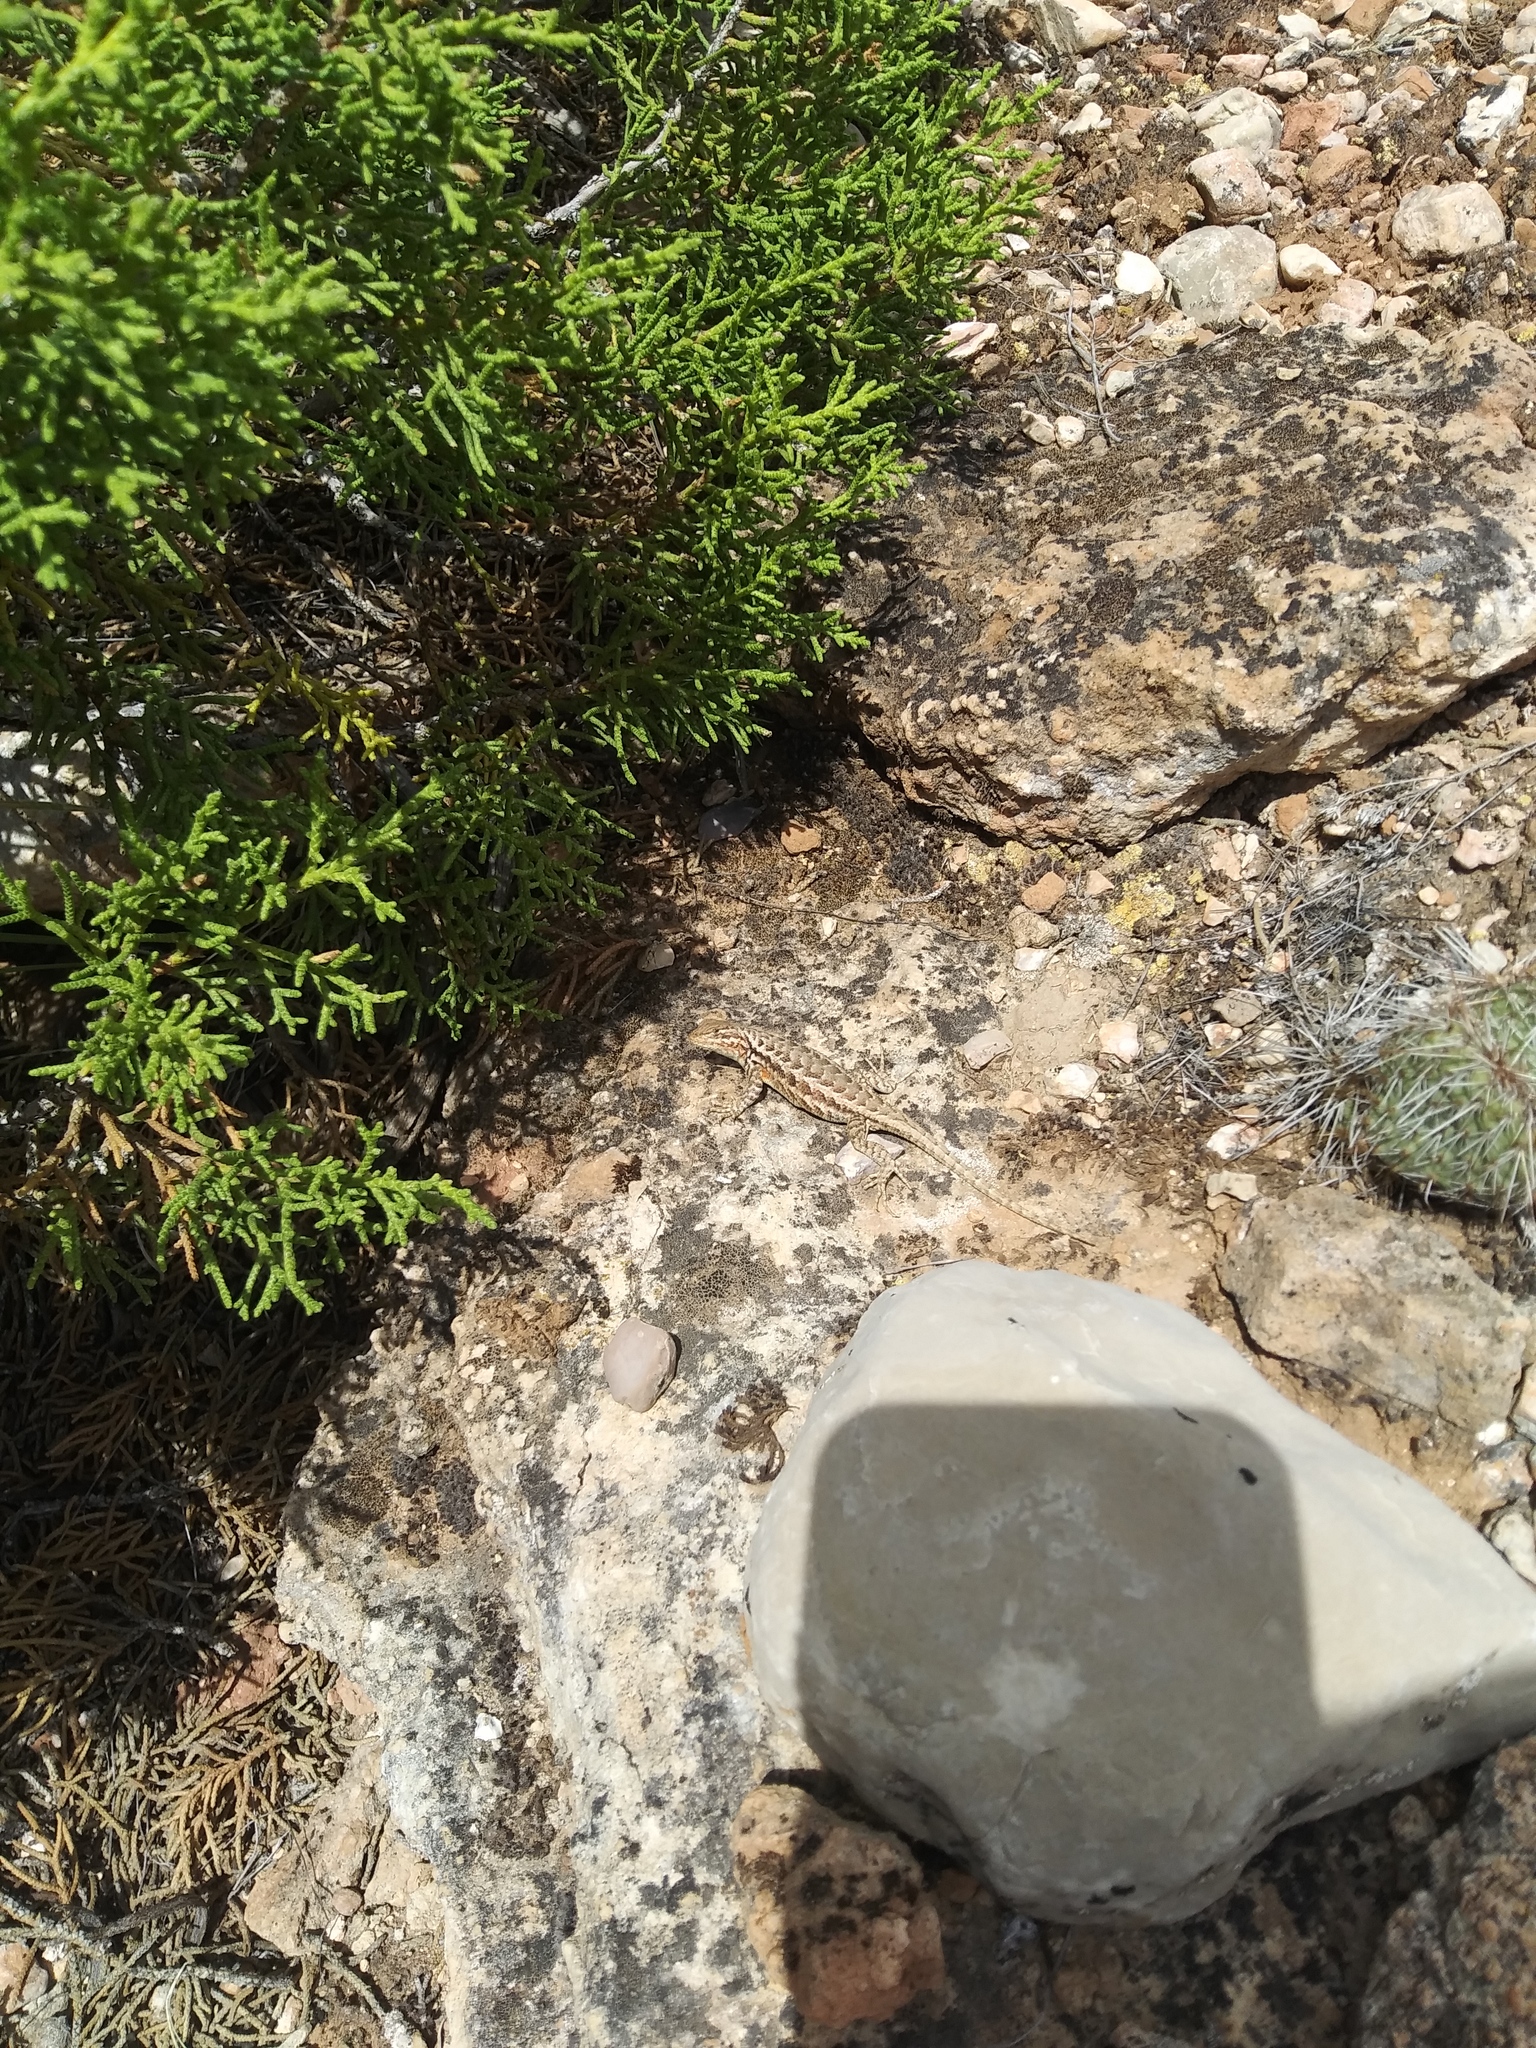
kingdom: Animalia
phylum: Chordata
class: Squamata
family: Phrynosomatidae
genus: Sceloporus
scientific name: Sceloporus graciosus
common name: Sagebrush lizard
